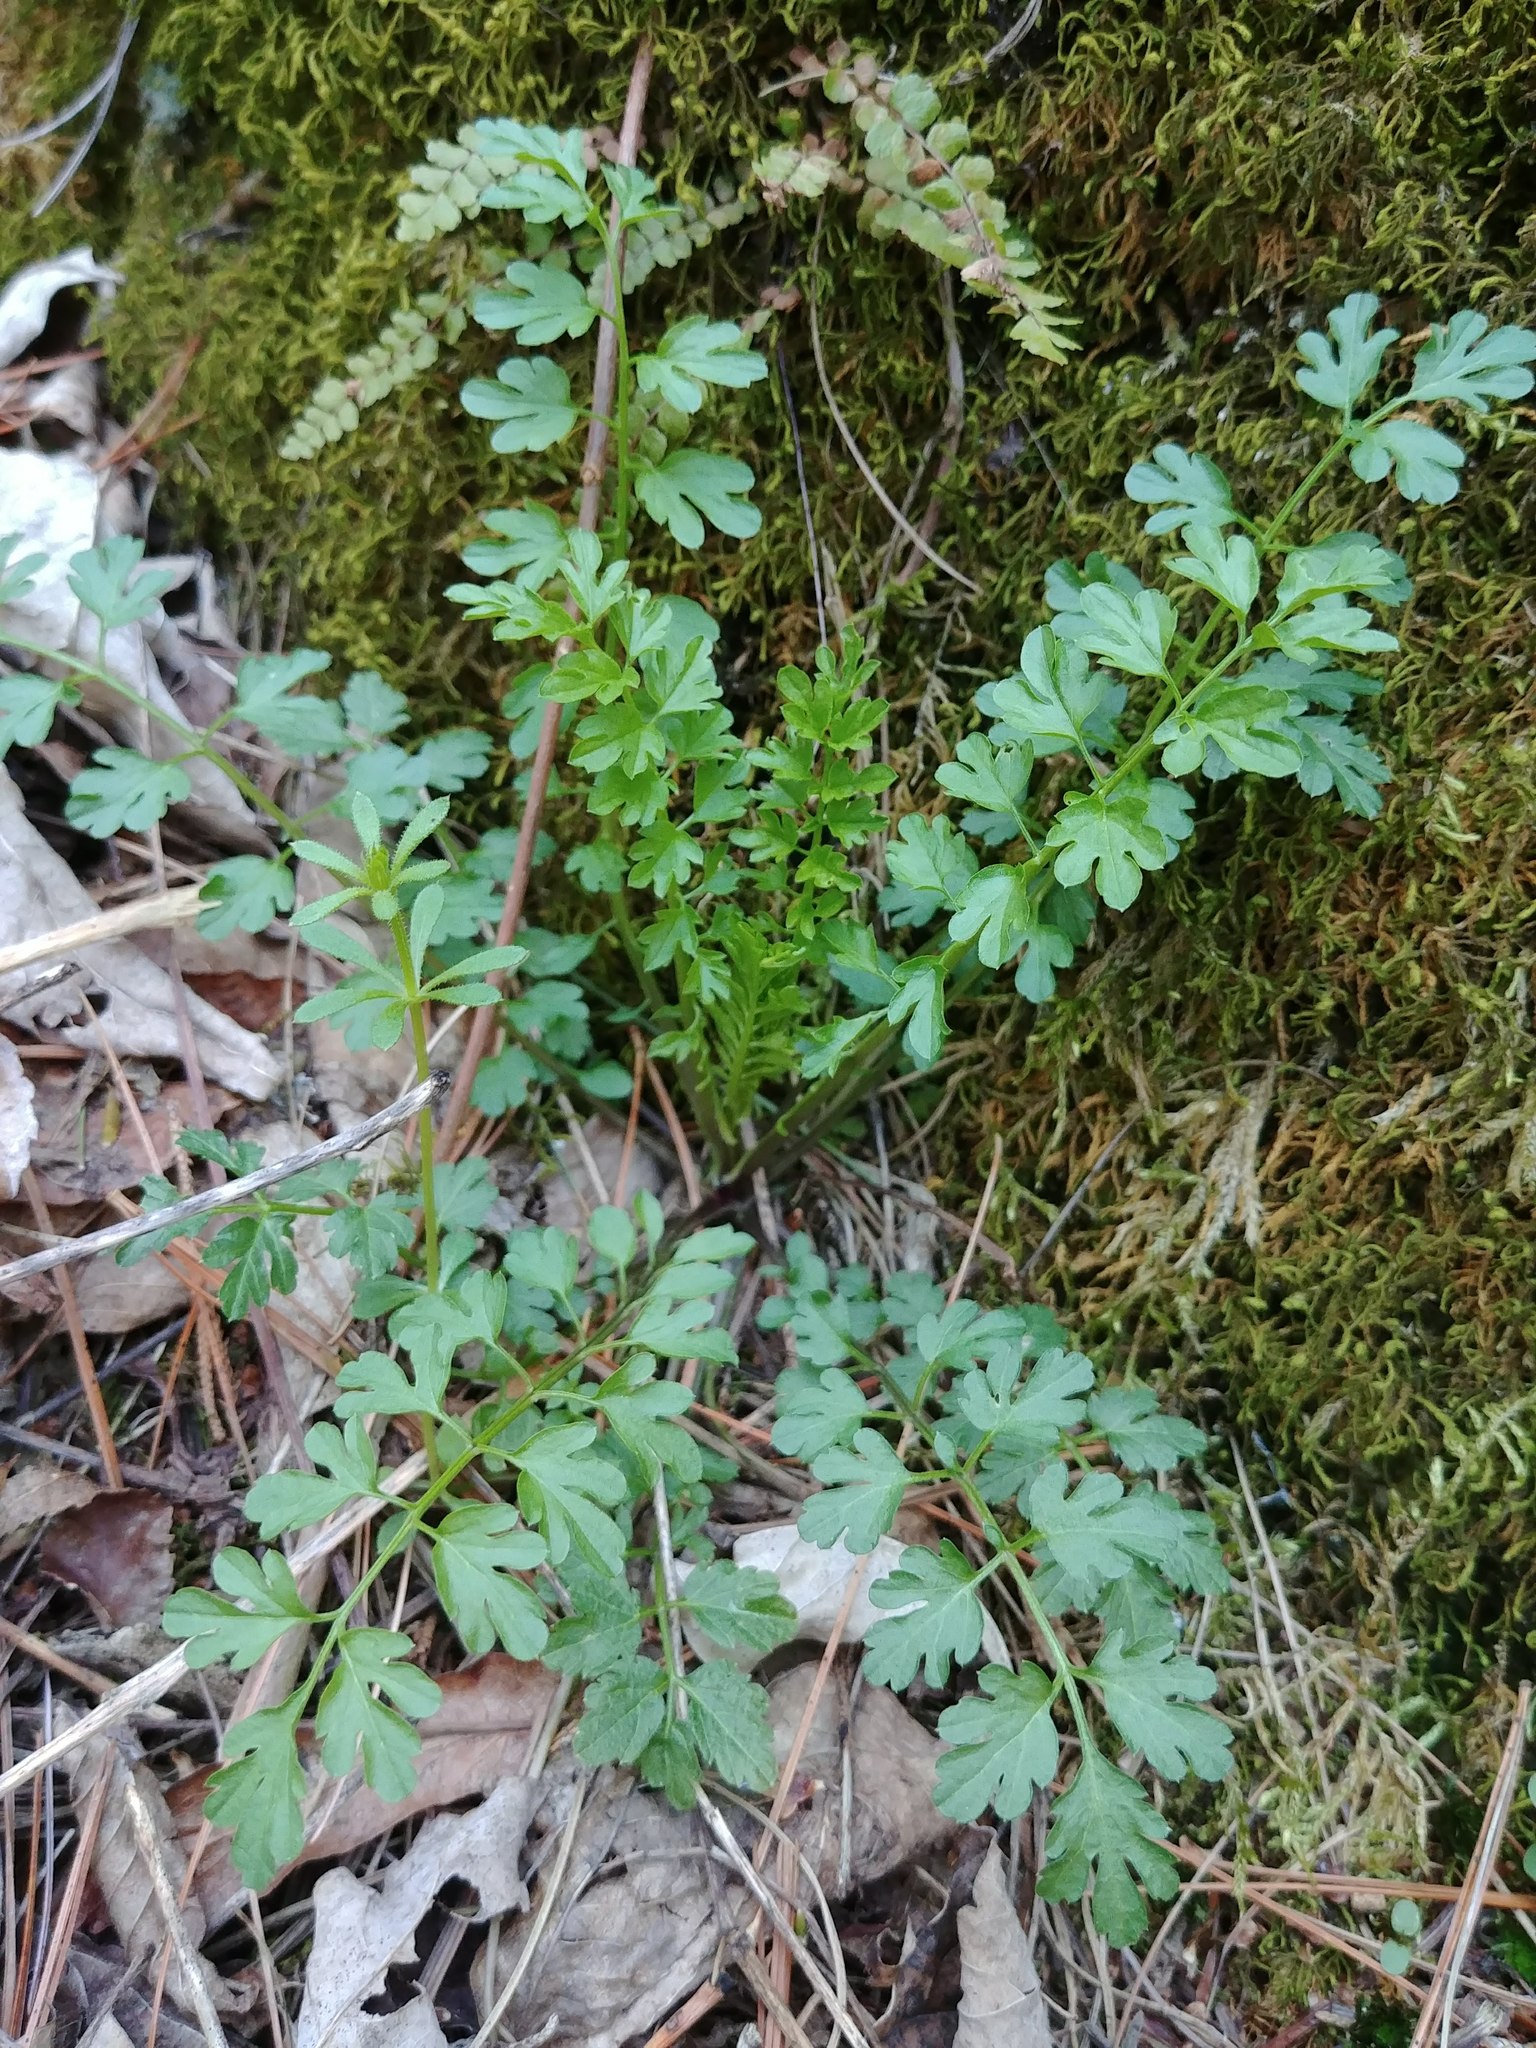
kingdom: Plantae
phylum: Tracheophyta
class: Magnoliopsida
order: Brassicales
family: Brassicaceae
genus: Cardamine
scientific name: Cardamine impatiens
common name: Narrow-leaved bitter-cress
